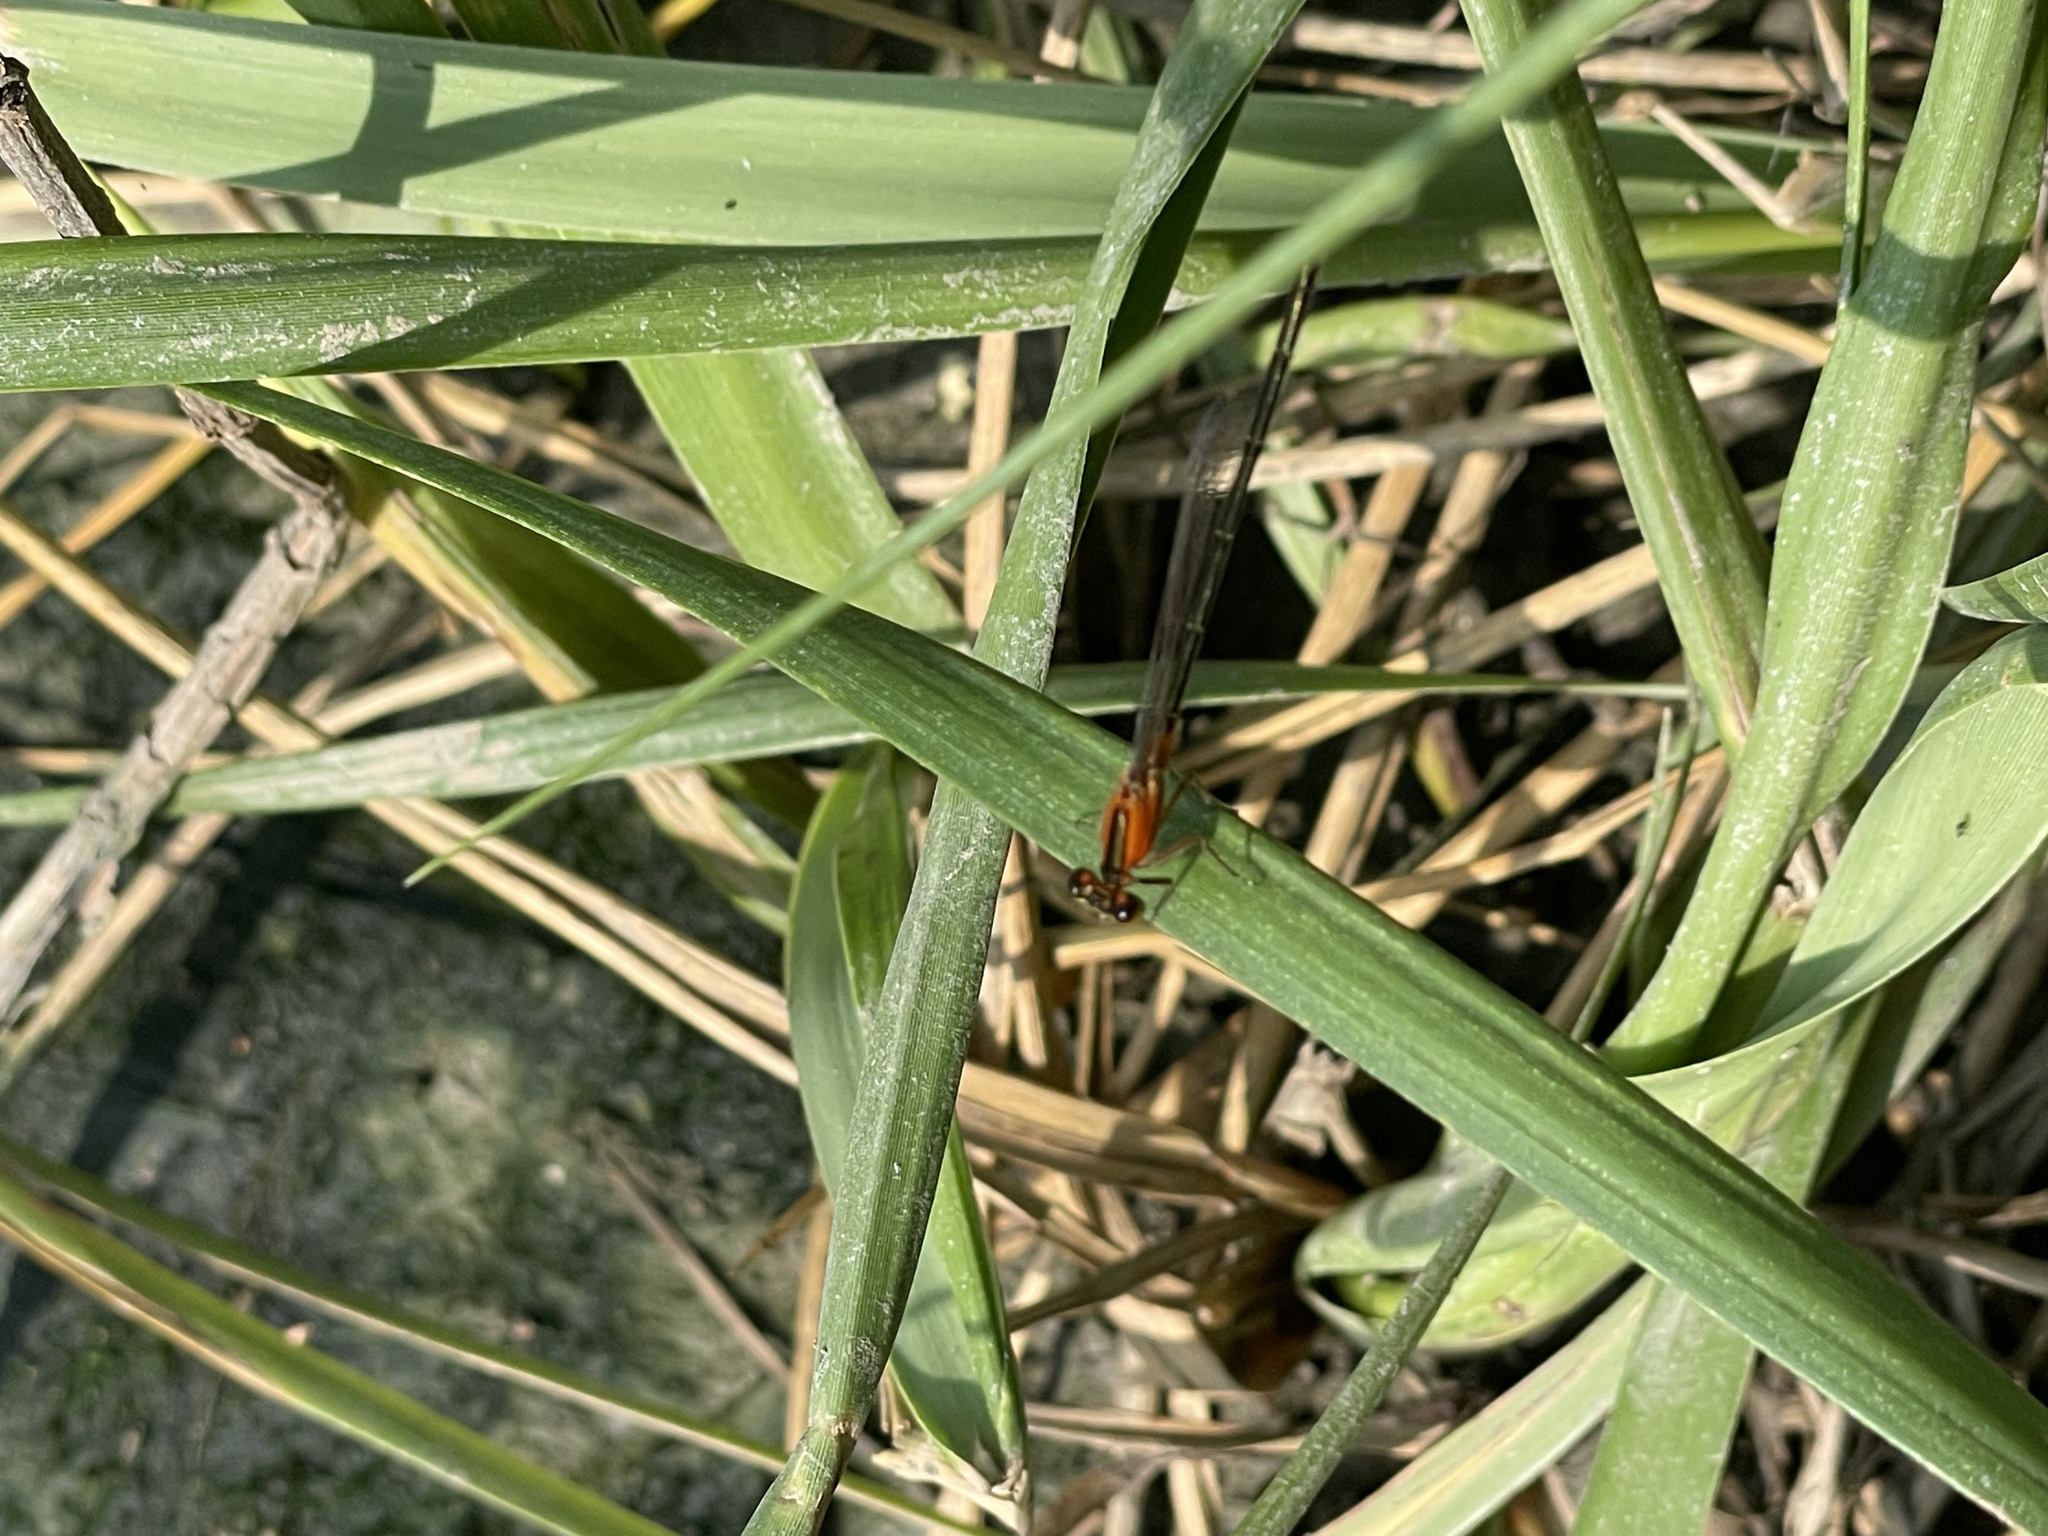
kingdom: Animalia
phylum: Arthropoda
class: Insecta
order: Odonata
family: Coenagrionidae
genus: Ischnura
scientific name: Ischnura ramburii
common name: Rambur's forktail
